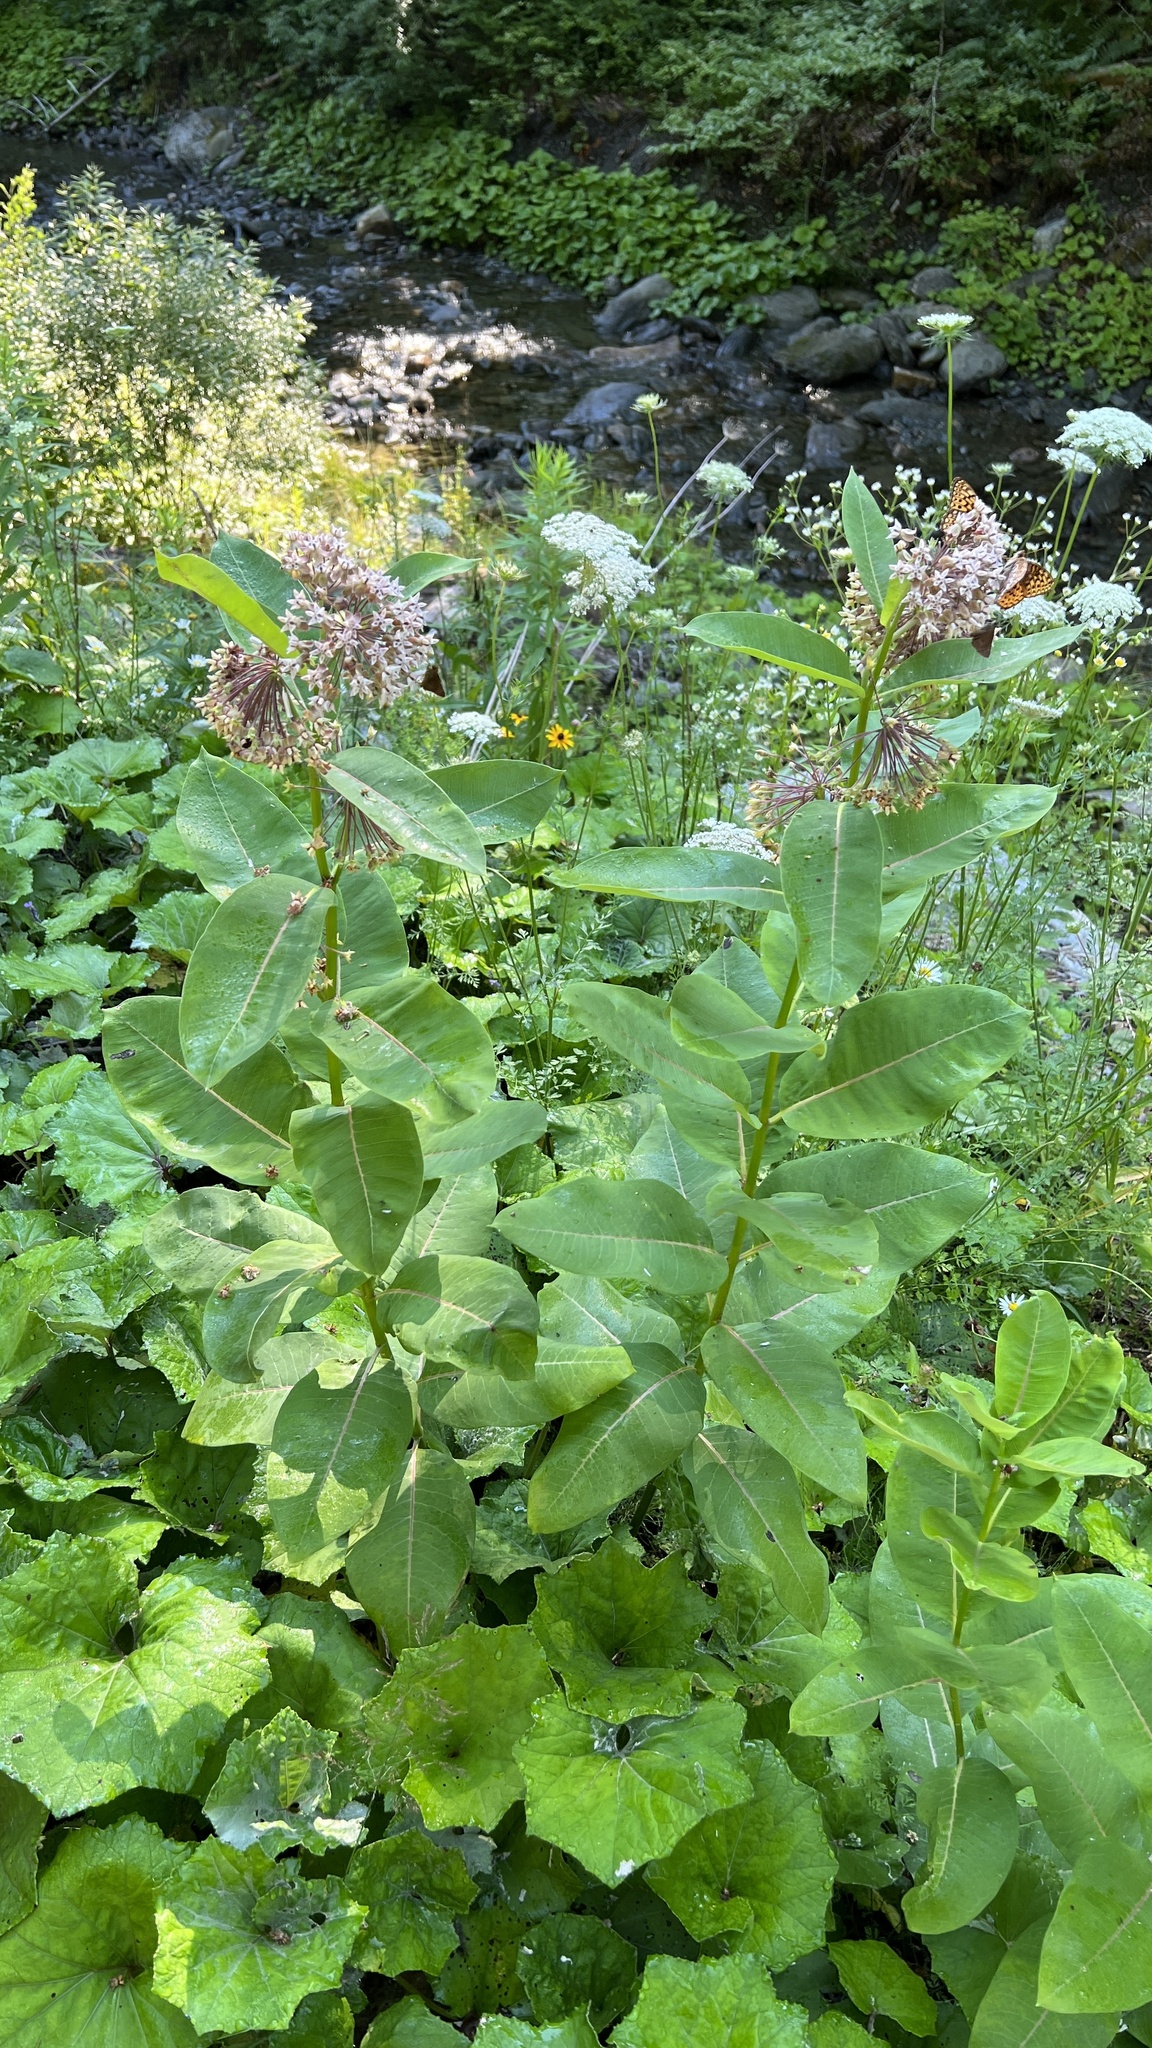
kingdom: Plantae
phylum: Tracheophyta
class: Magnoliopsida
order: Gentianales
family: Apocynaceae
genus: Asclepias
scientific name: Asclepias syriaca
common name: Common milkweed
